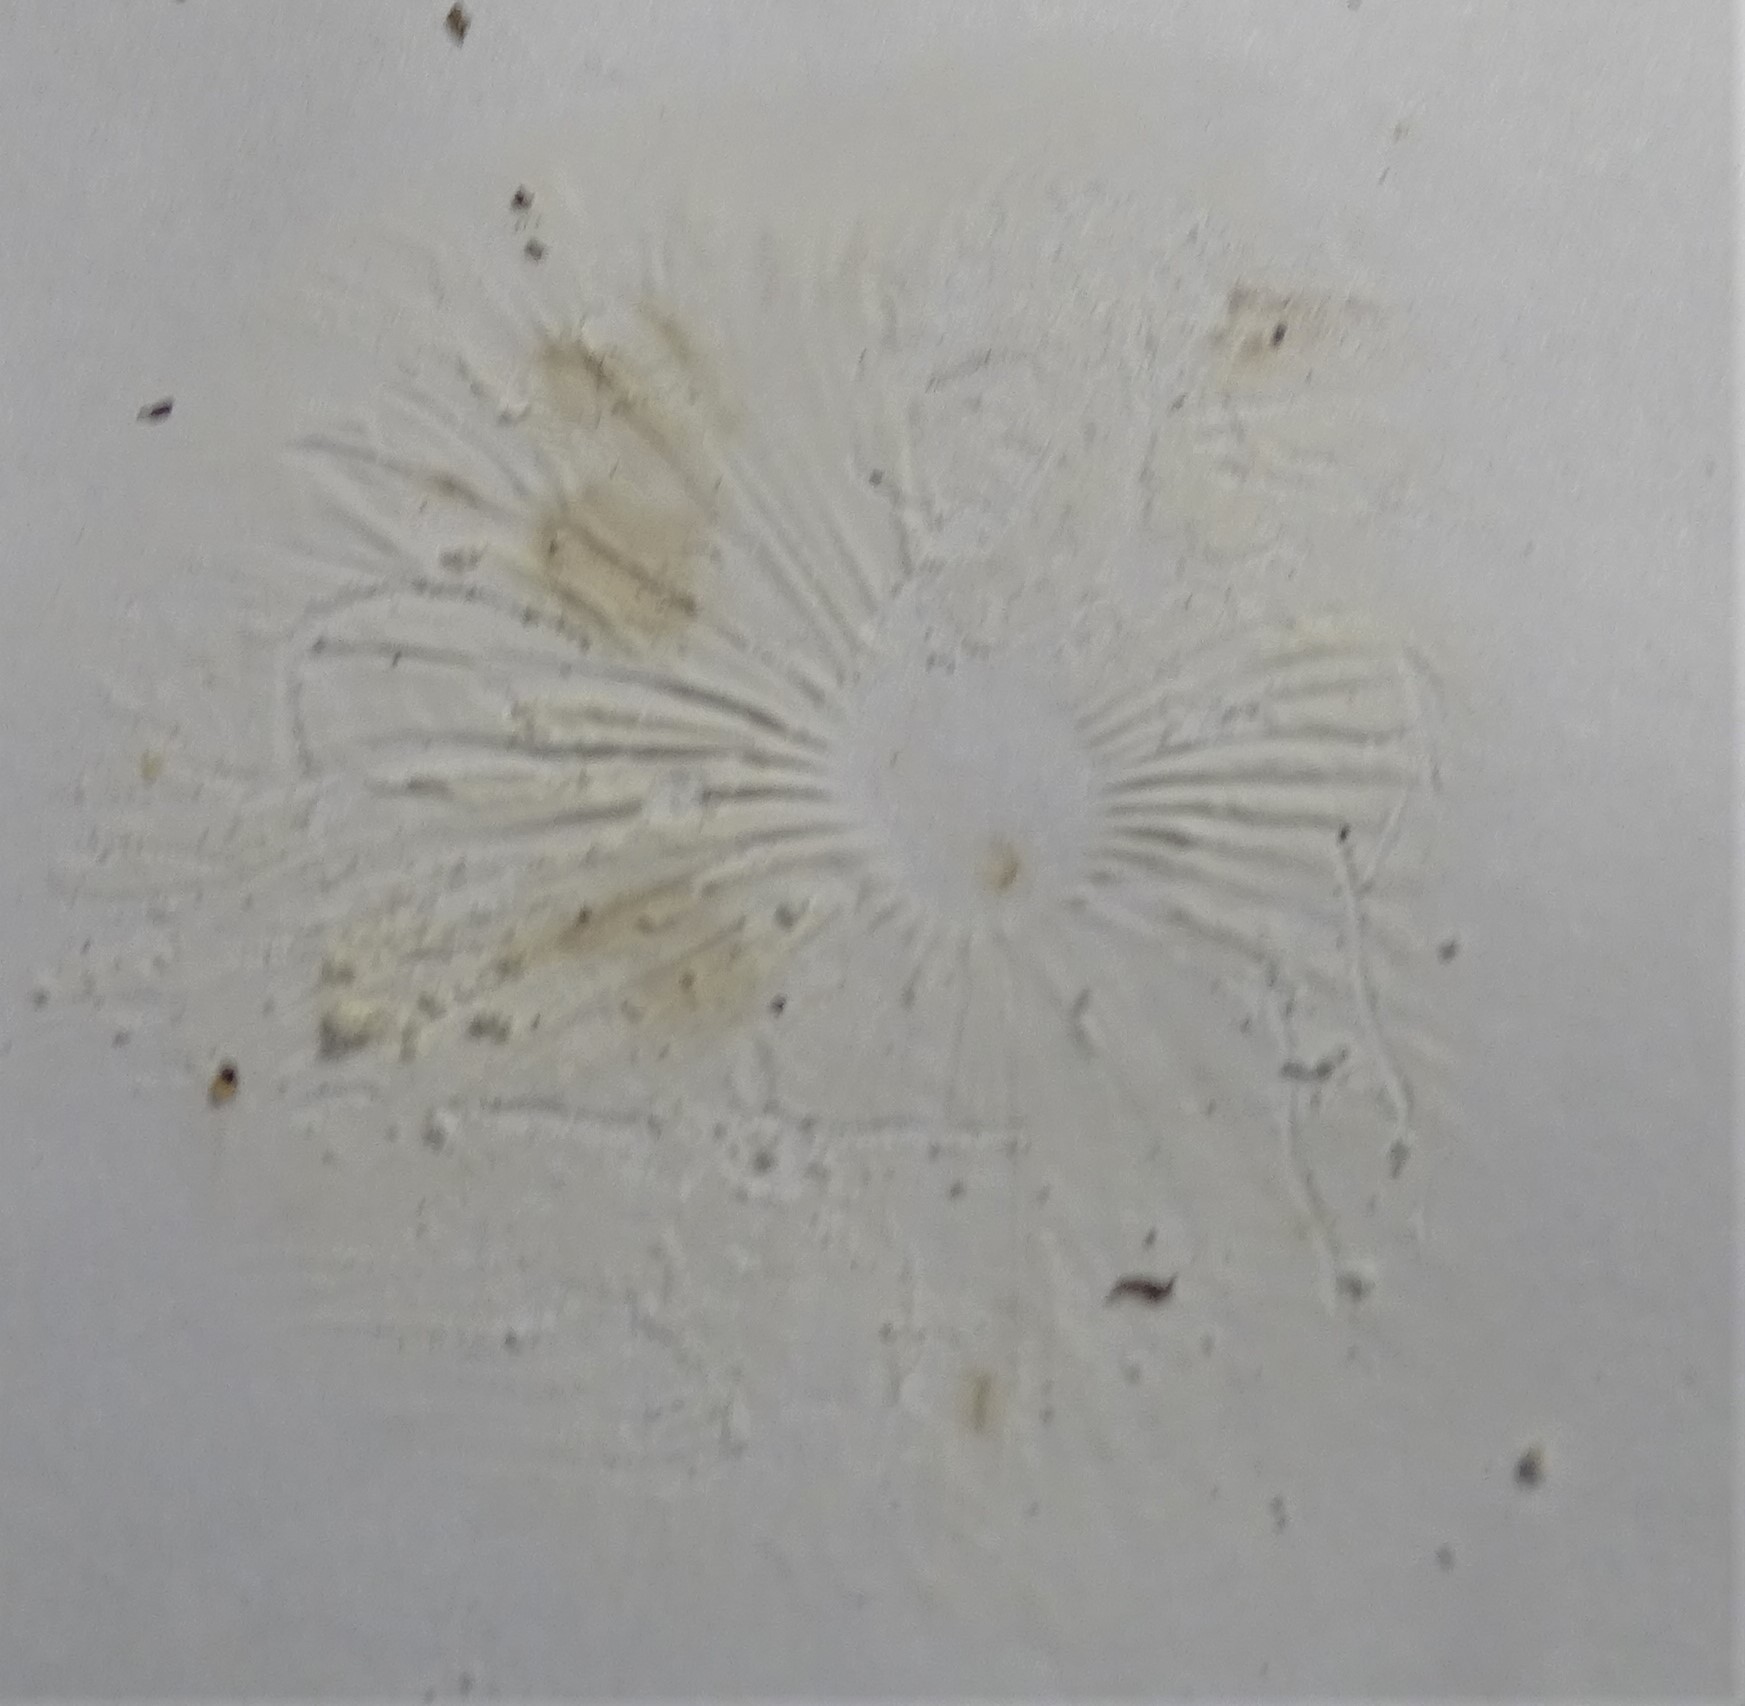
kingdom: Fungi
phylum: Basidiomycota
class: Agaricomycetes
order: Agaricales
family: Marasmiaceae
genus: Marasmius
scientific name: Marasmius oreades
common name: Fairy ring champignon
